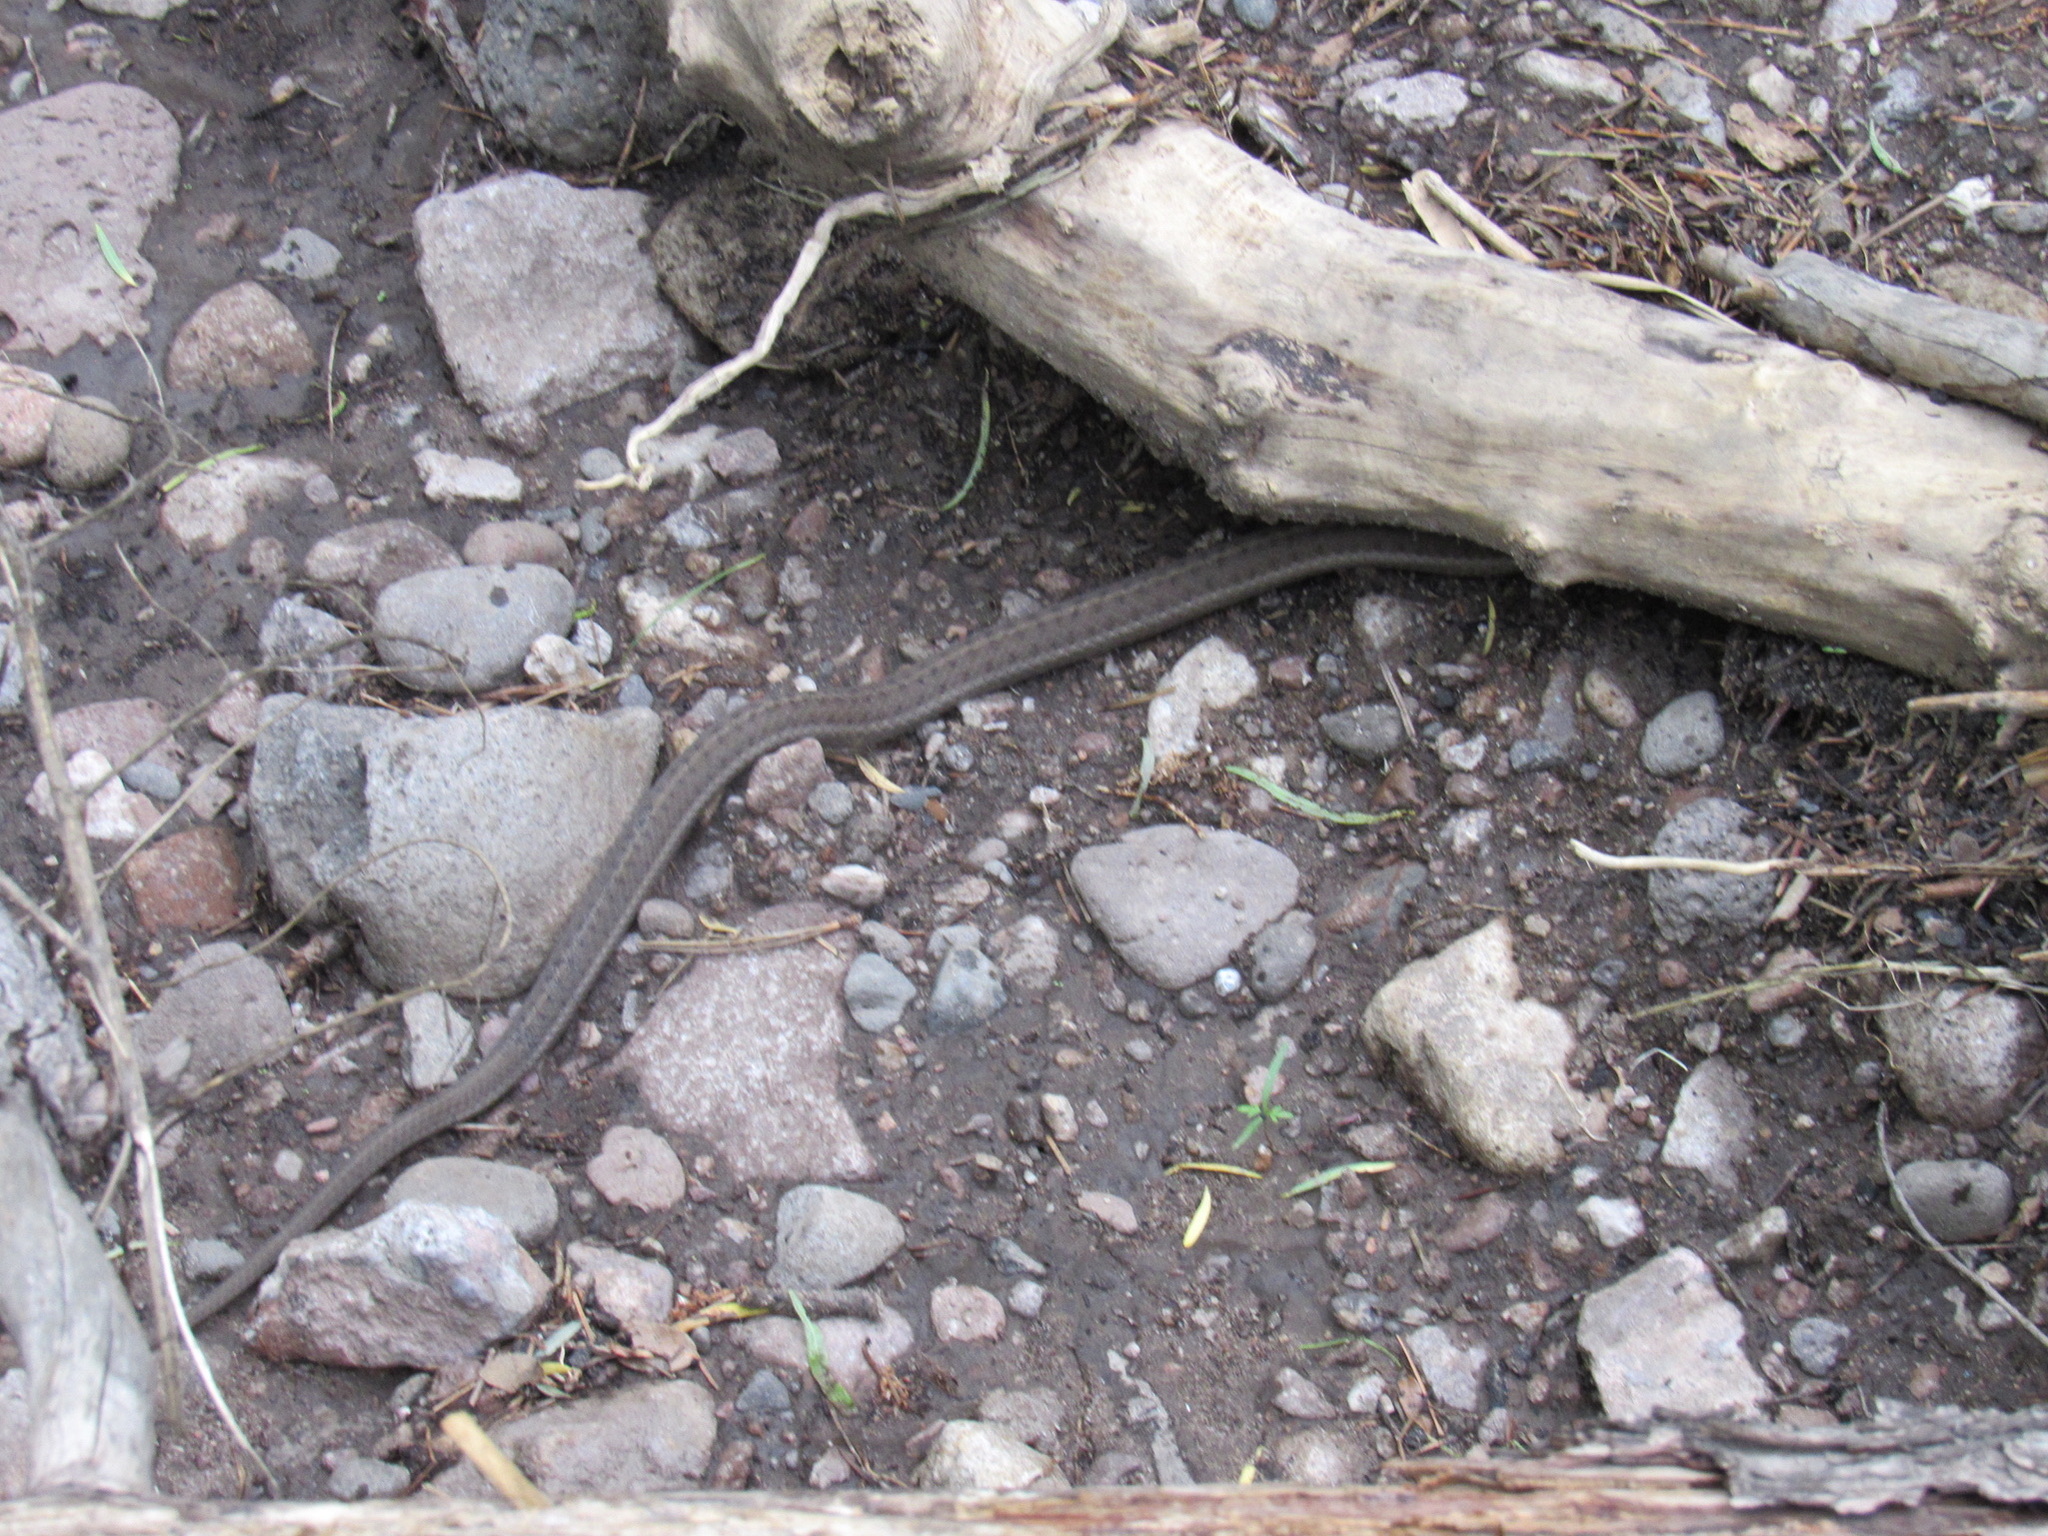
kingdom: Animalia
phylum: Chordata
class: Squamata
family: Colubridae
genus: Thamnophis
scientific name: Thamnophis elegans
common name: Western terrestrial garter snake
